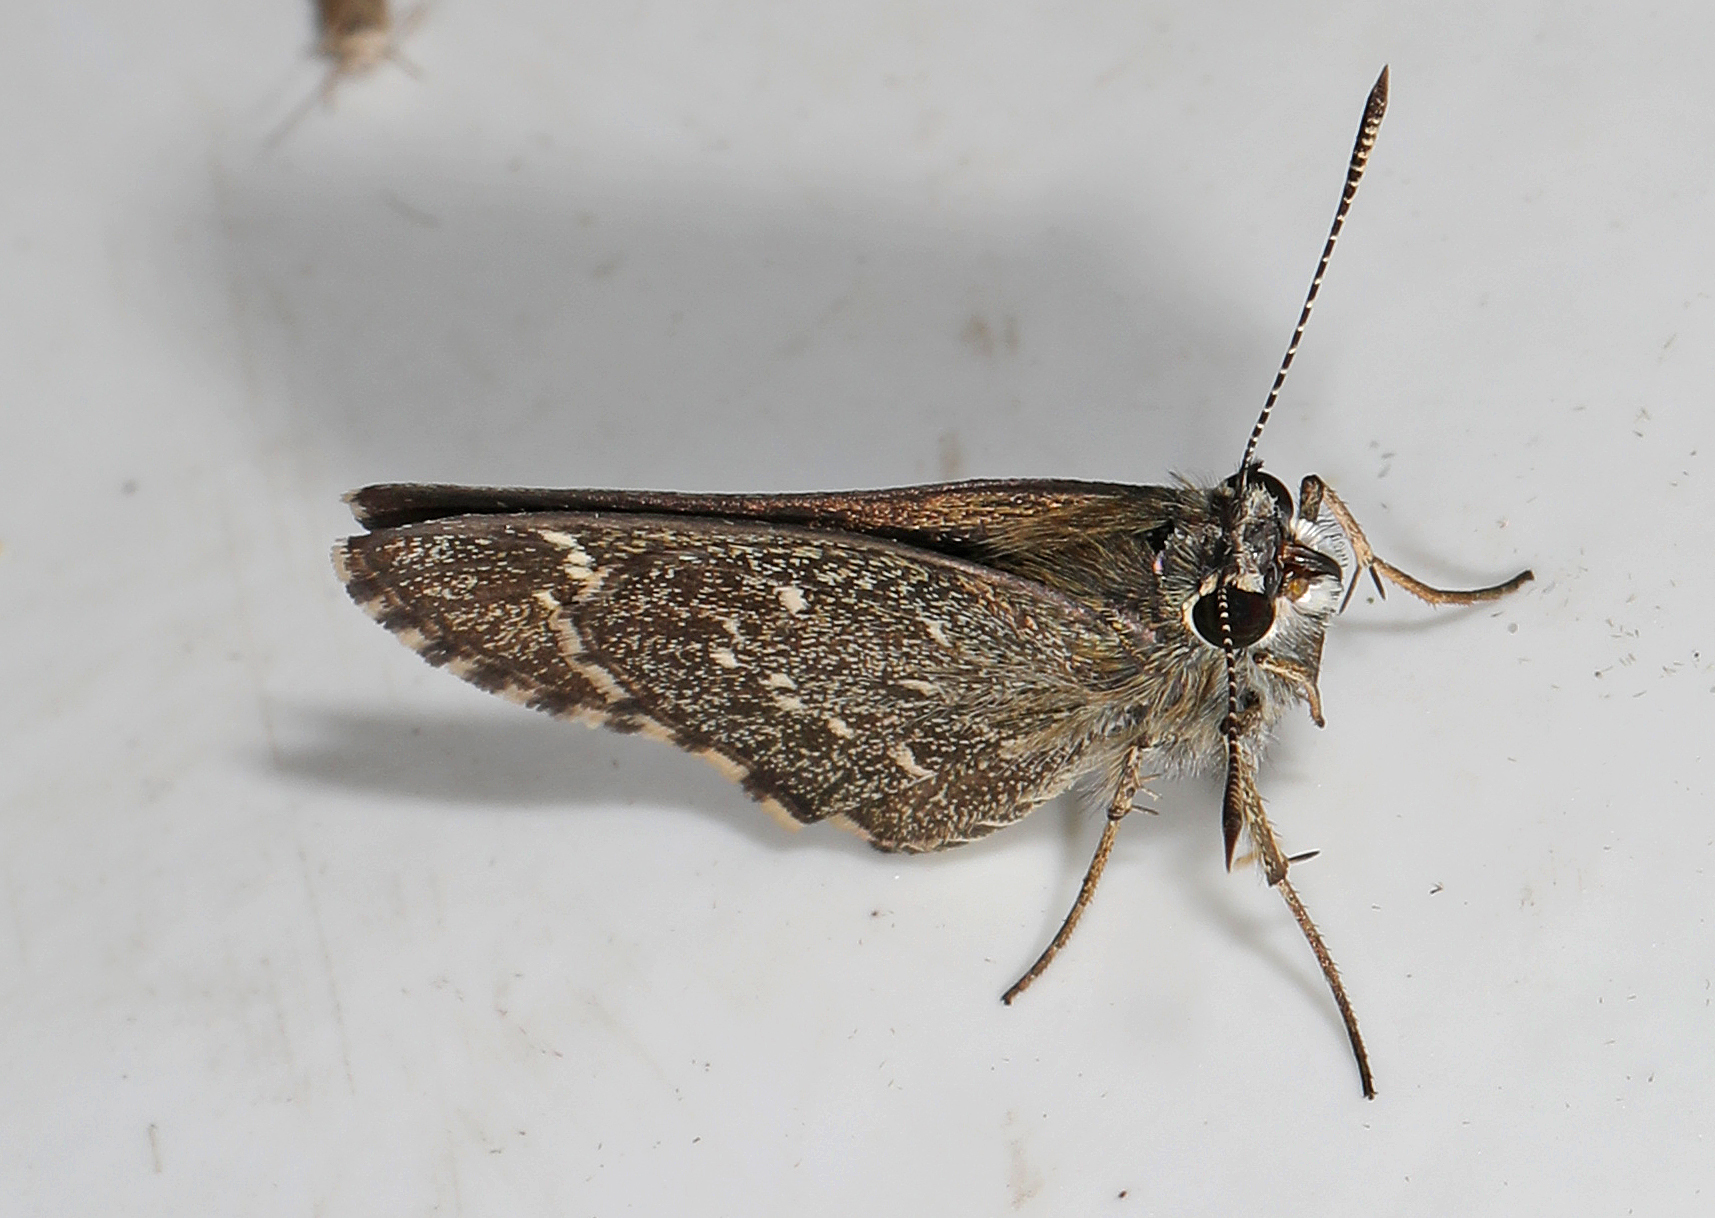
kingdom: Animalia
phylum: Arthropoda
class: Insecta
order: Lepidoptera
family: Hesperiidae
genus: Mastor
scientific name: Mastor celia
